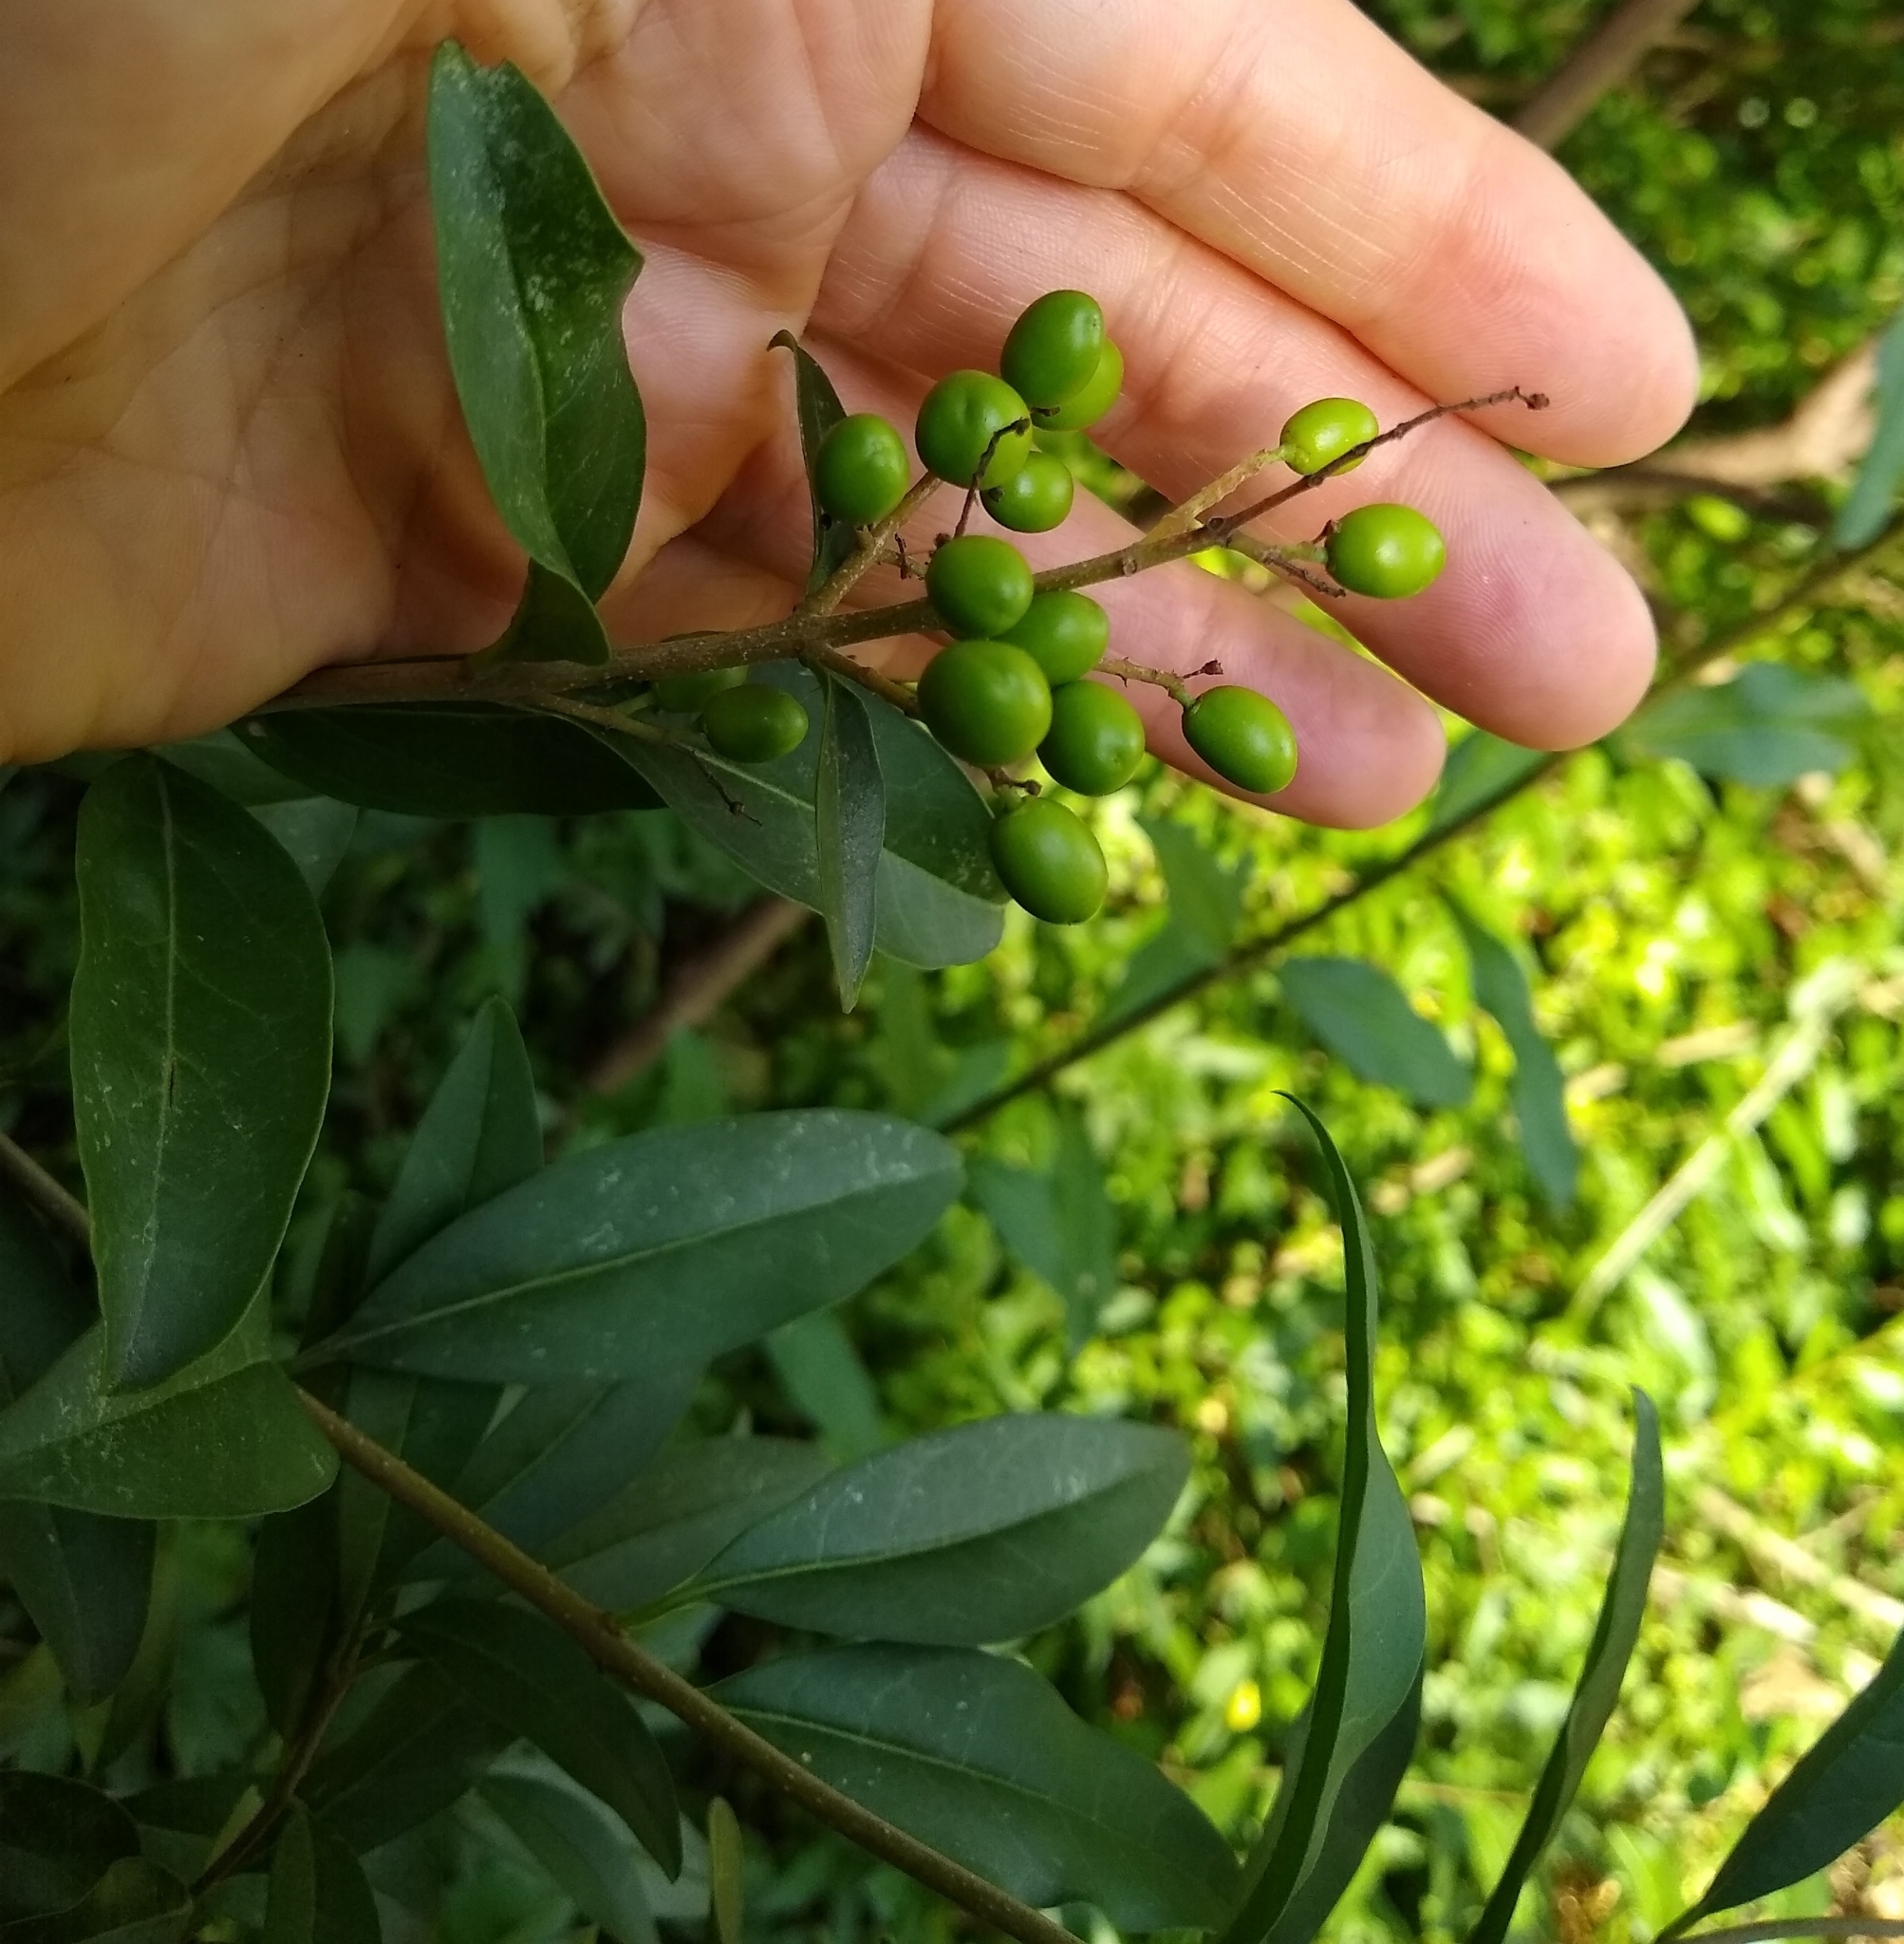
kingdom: Plantae
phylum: Tracheophyta
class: Magnoliopsida
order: Lamiales
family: Oleaceae
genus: Ligustrum
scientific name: Ligustrum vulgare
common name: Wild privet
